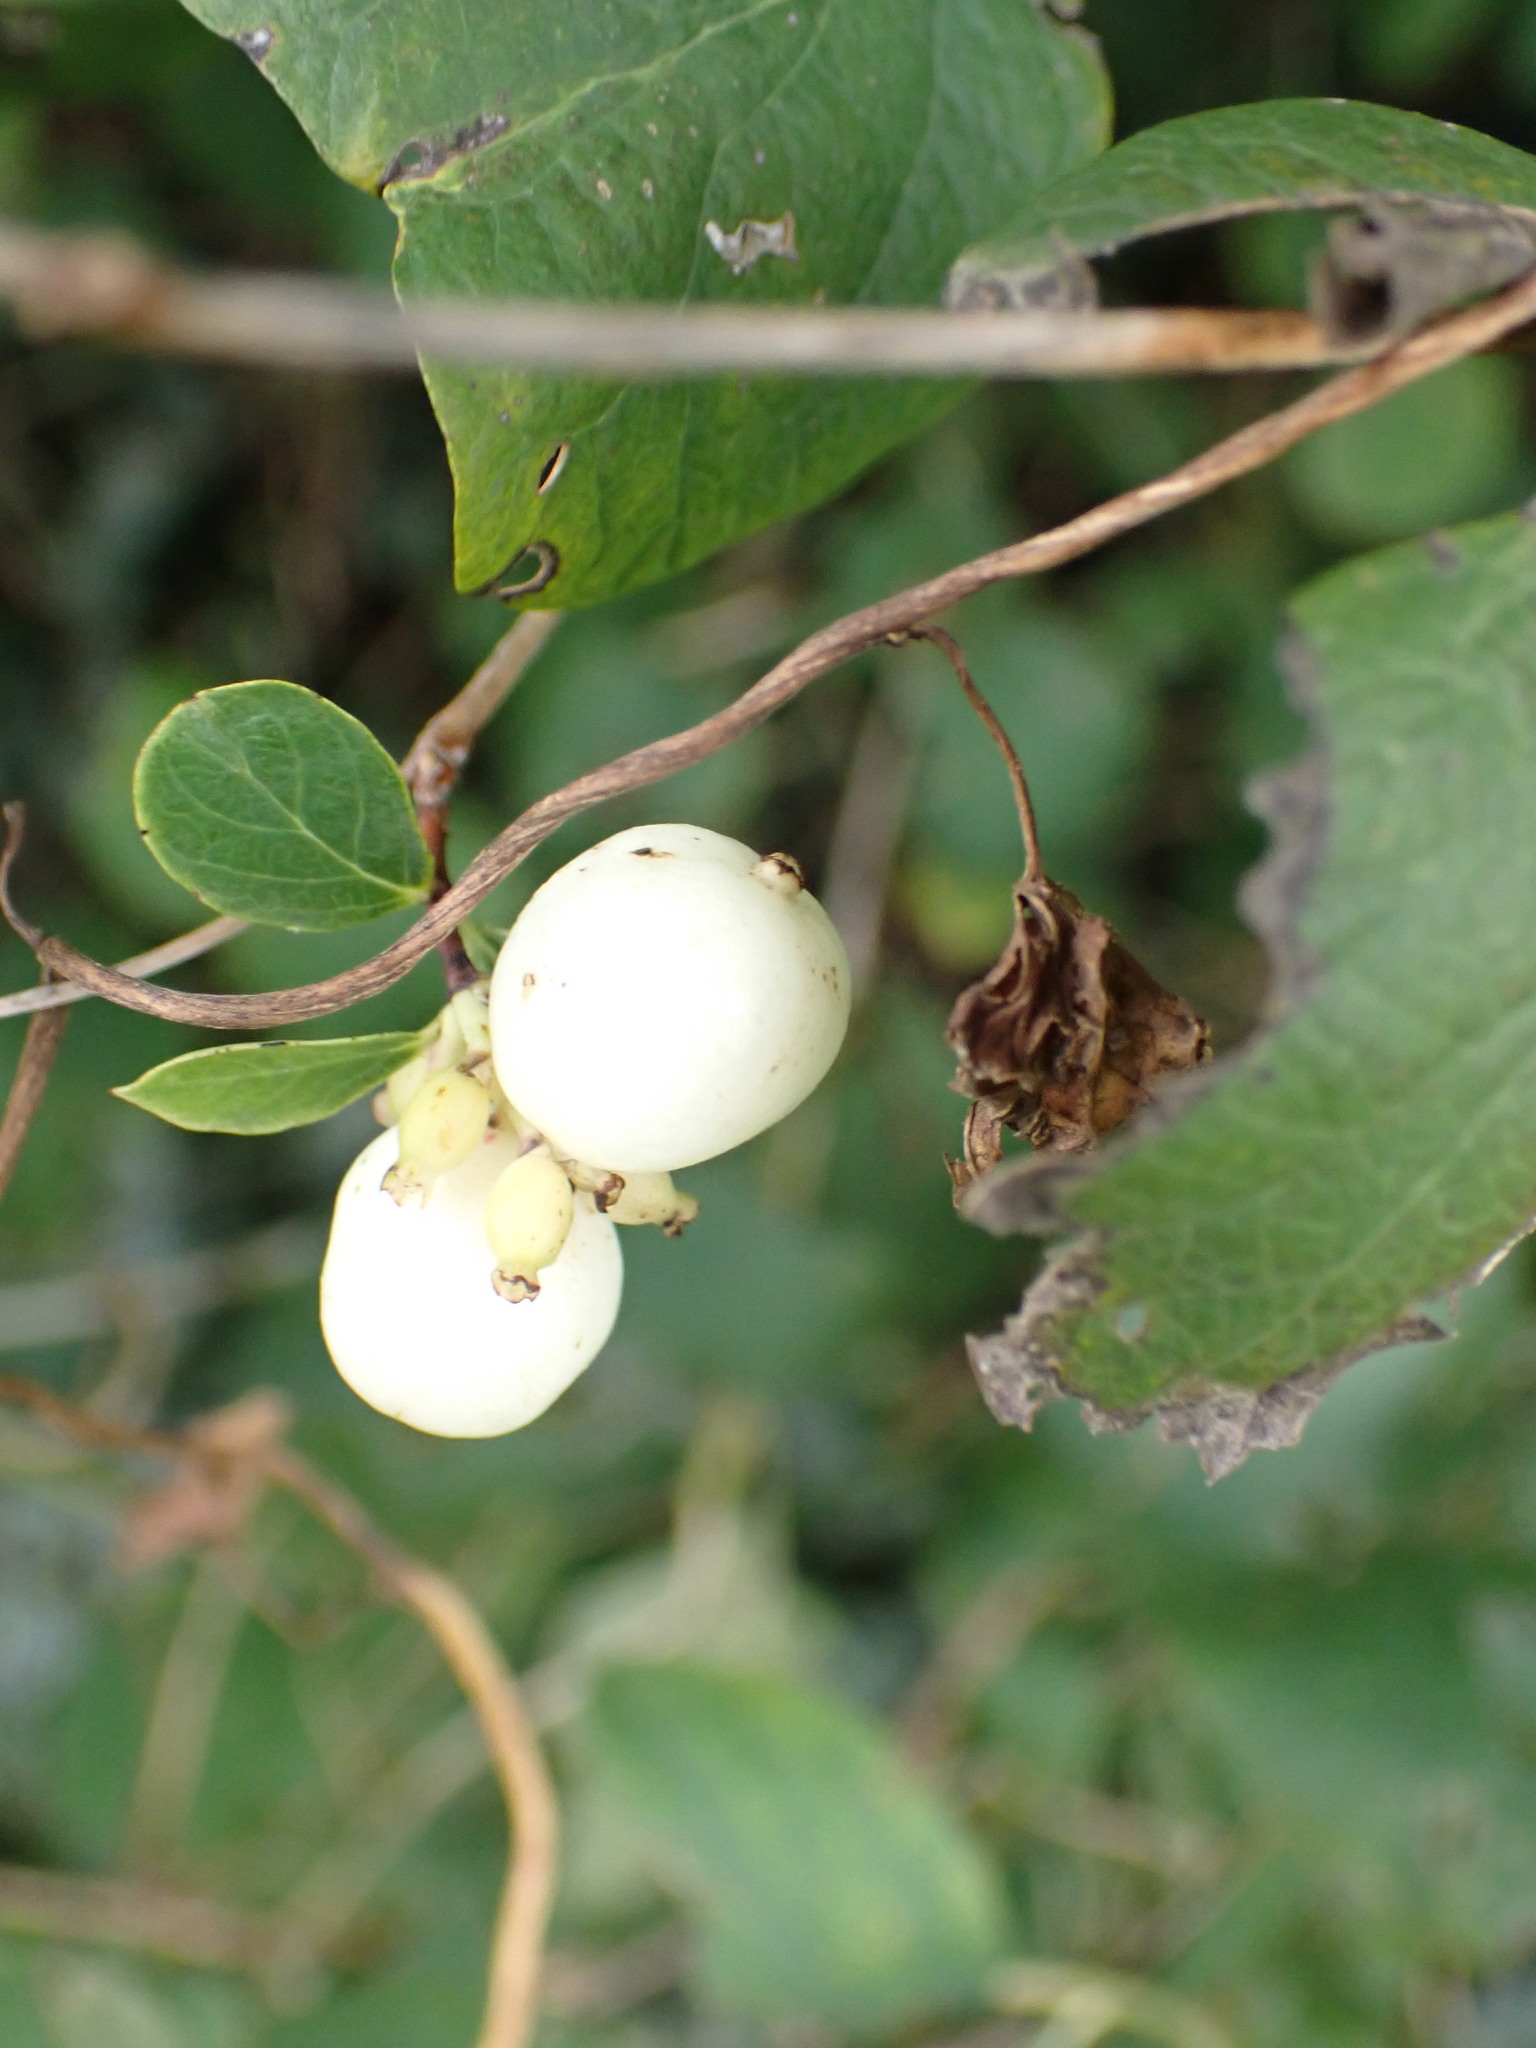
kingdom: Plantae
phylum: Tracheophyta
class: Magnoliopsida
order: Dipsacales
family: Caprifoliaceae
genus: Symphoricarpos
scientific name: Symphoricarpos albus
